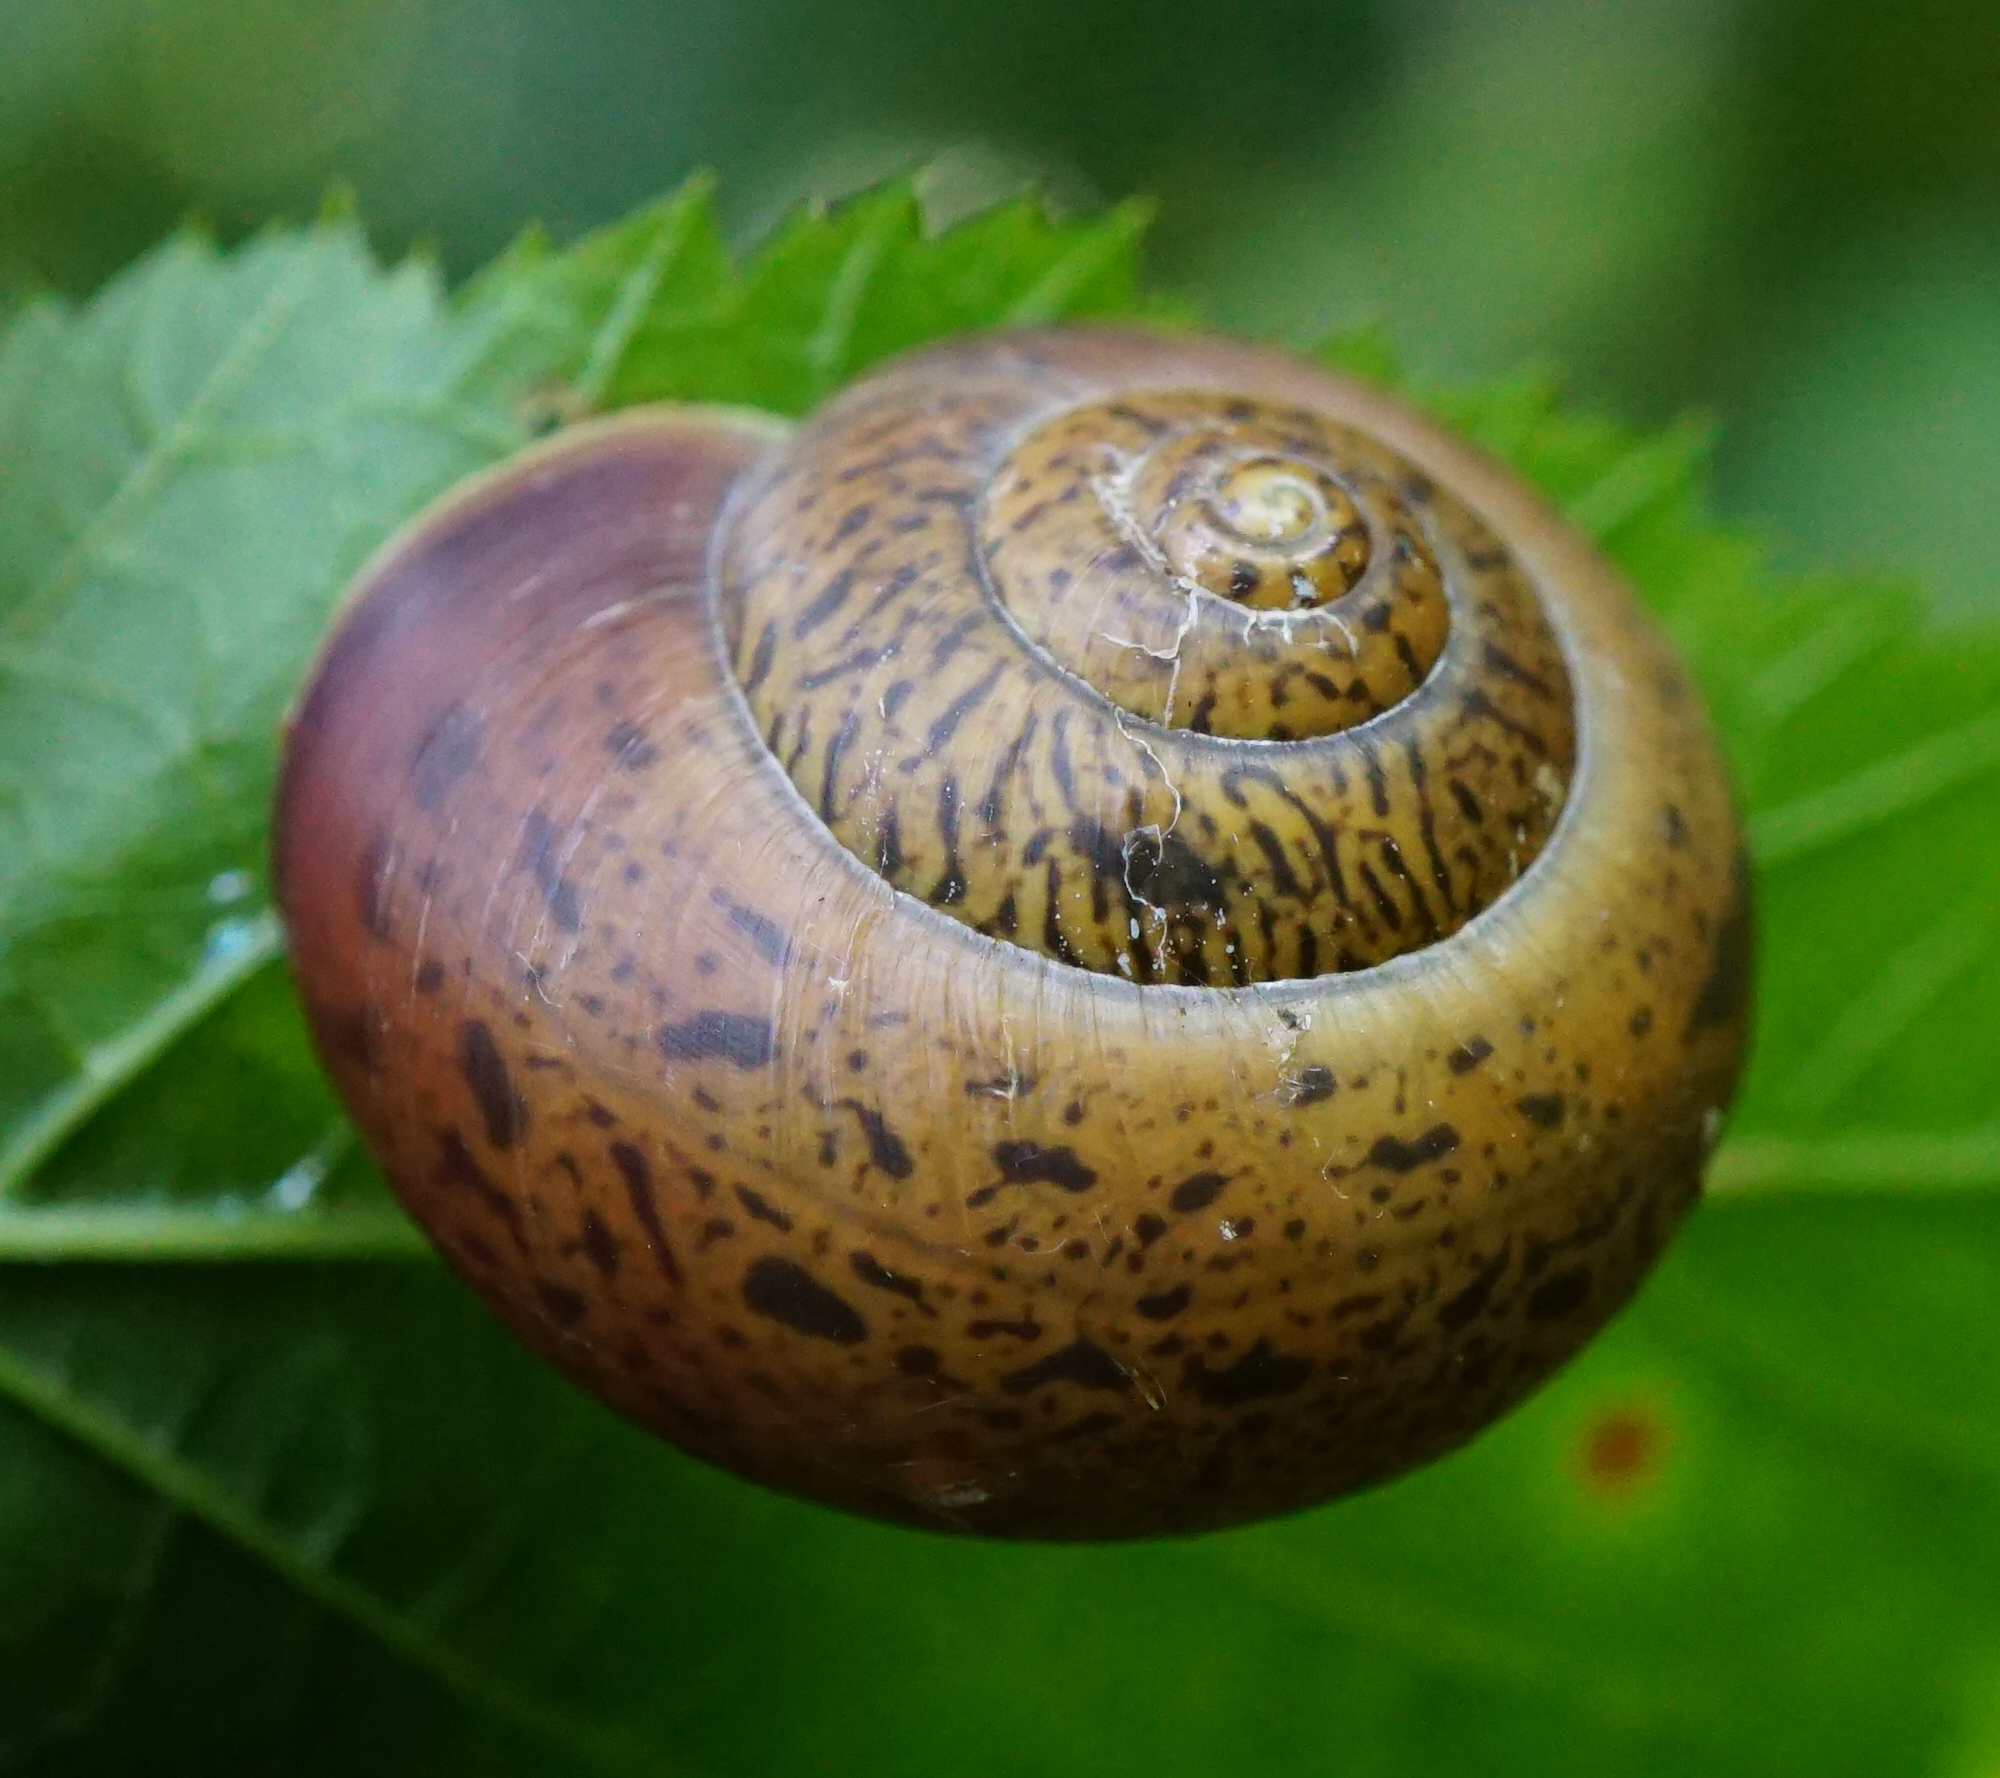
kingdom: Animalia
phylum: Mollusca
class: Gastropoda
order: Stylommatophora
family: Camaenidae
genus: Fruticicola
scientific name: Fruticicola fruticum
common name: Bush snail
